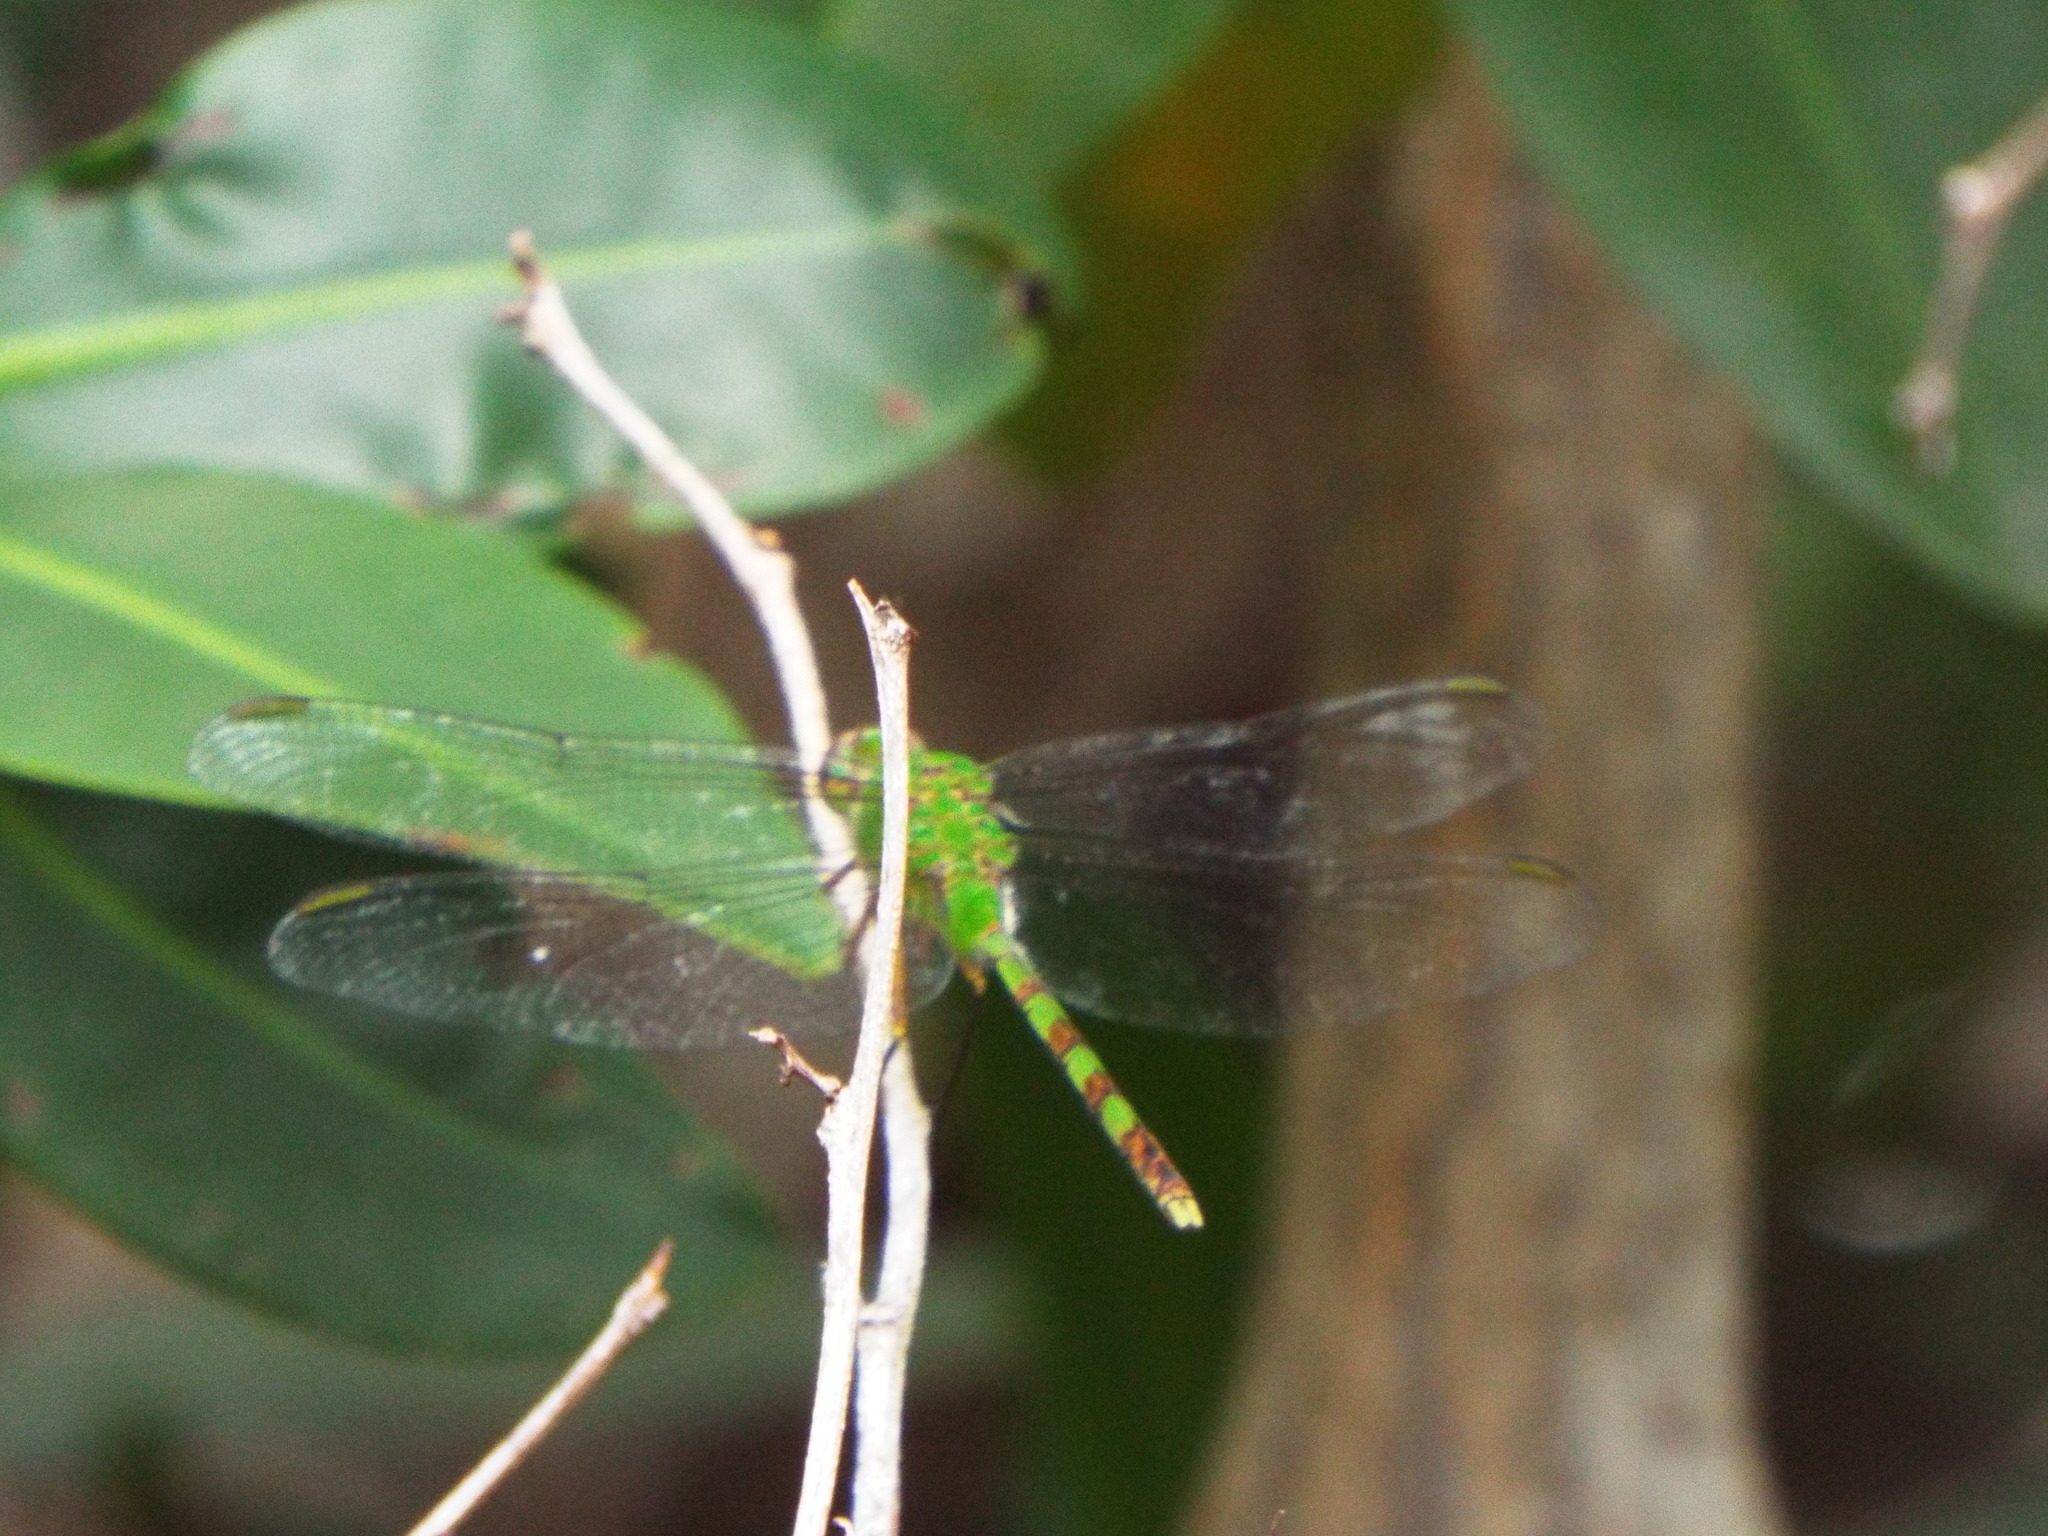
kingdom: Animalia
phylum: Arthropoda
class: Insecta
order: Odonata
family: Libellulidae
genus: Erythemis
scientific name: Erythemis vesiculosa
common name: Great pondhawk
